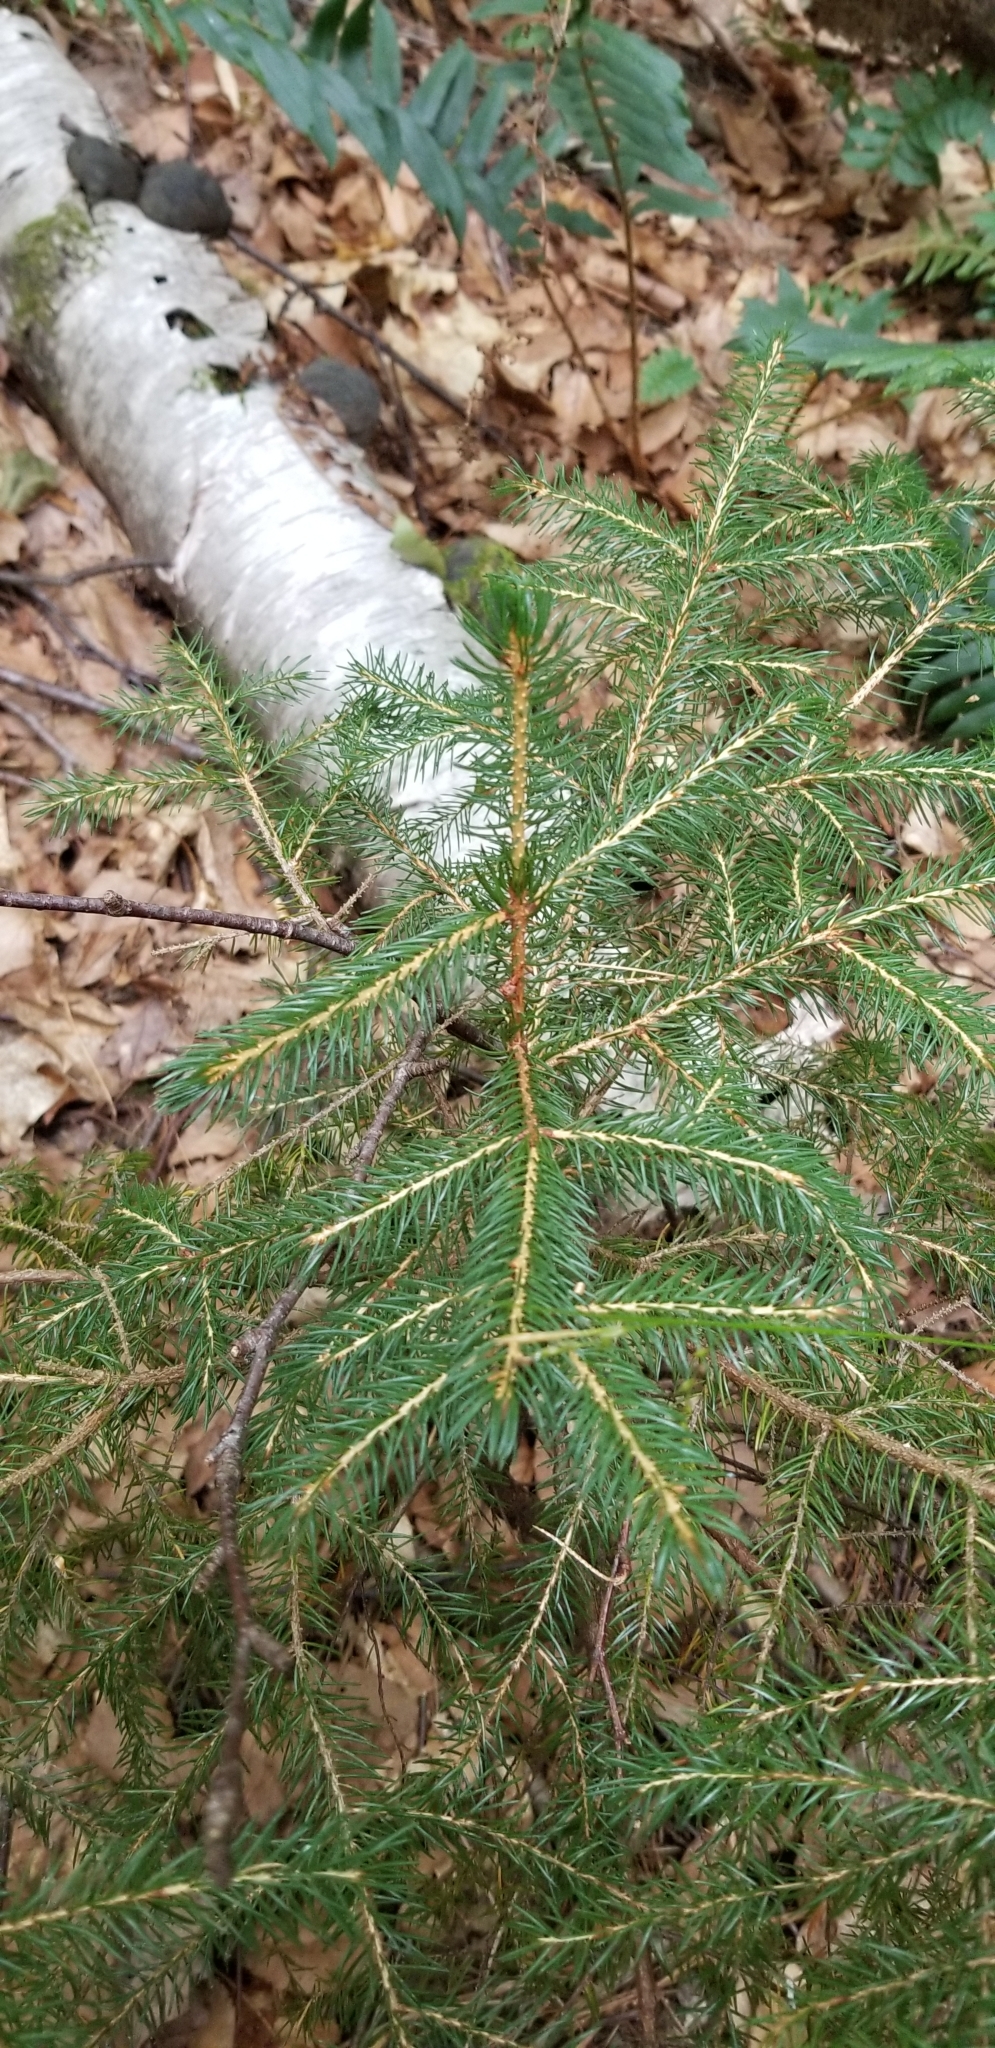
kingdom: Plantae
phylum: Tracheophyta
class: Pinopsida
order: Pinales
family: Pinaceae
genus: Picea
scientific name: Picea rubens
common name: Red spruce
